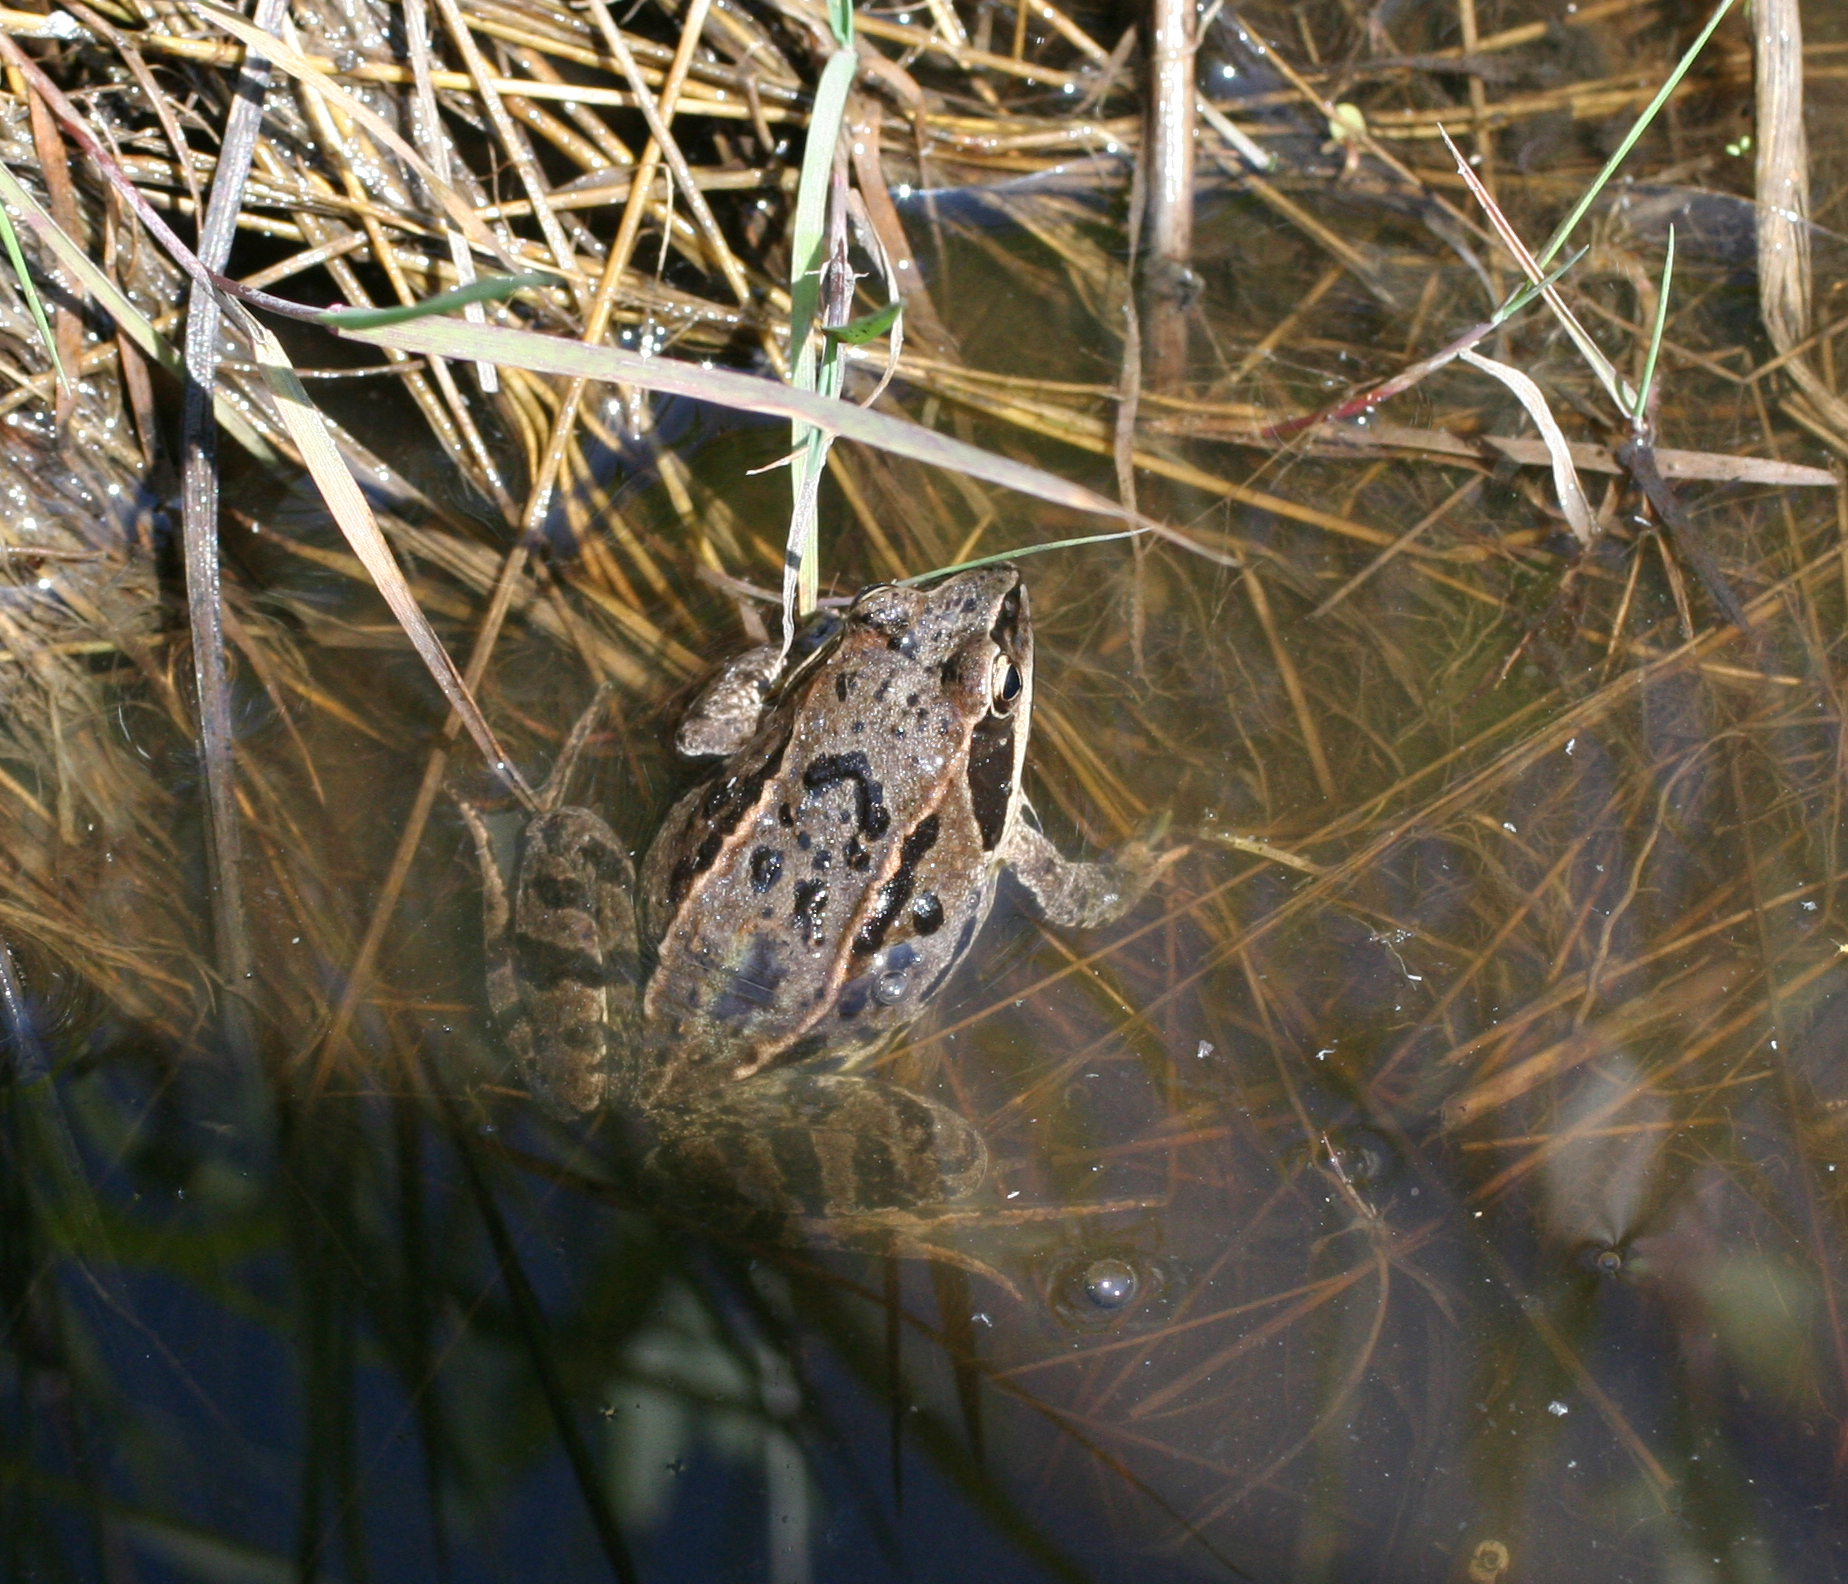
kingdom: Animalia
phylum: Chordata
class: Amphibia
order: Anura
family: Ranidae
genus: Rana
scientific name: Rana arvalis
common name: Moor frog
